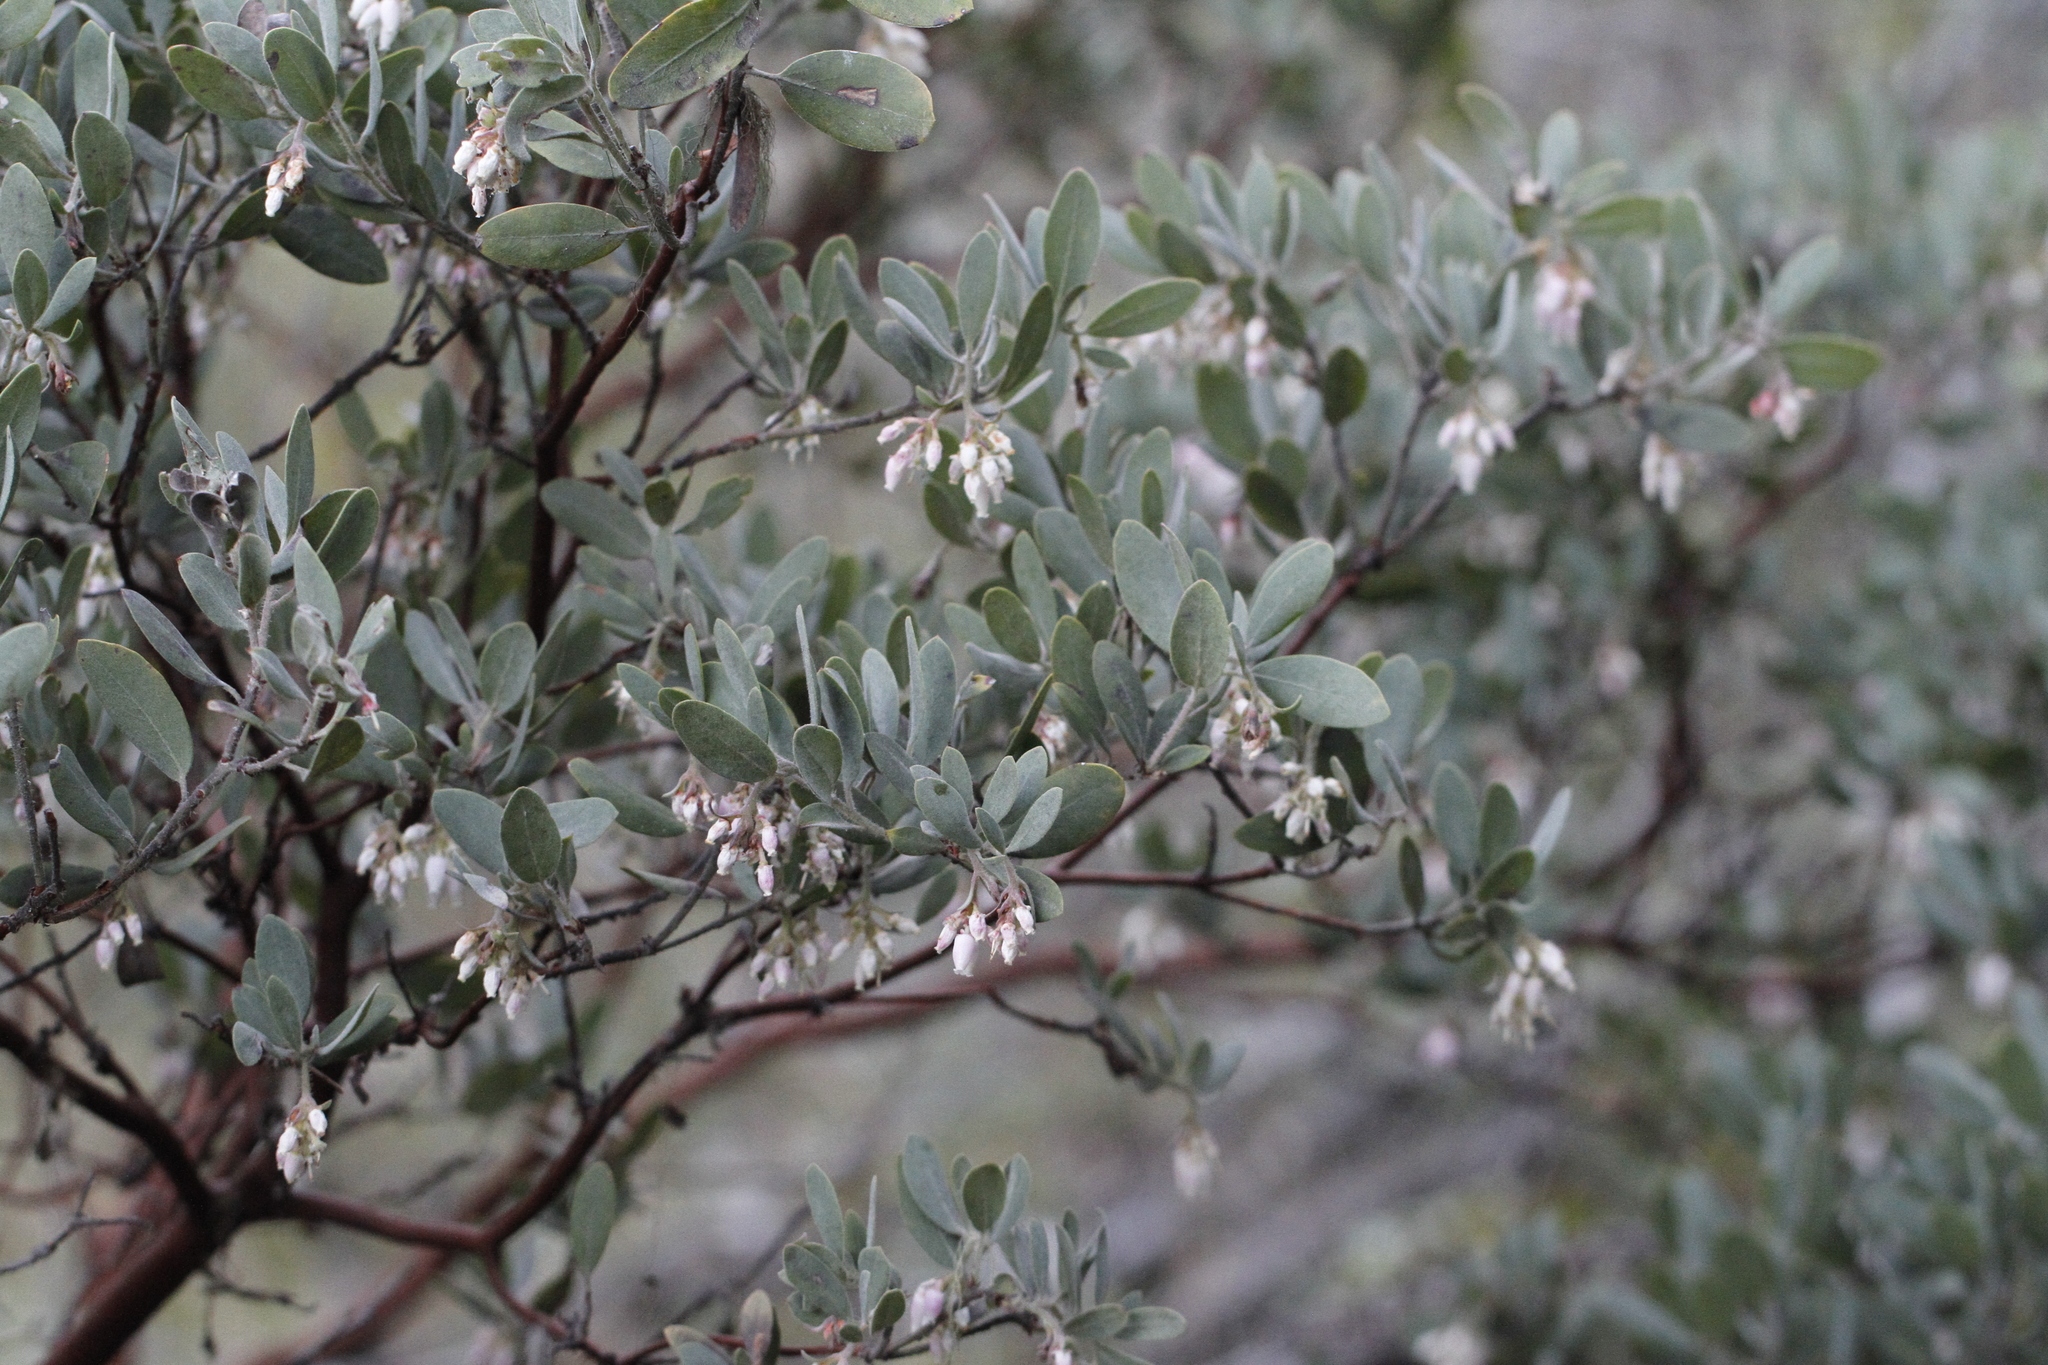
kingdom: Plantae
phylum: Tracheophyta
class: Magnoliopsida
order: Ericales
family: Ericaceae
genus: Arctostaphylos
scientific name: Arctostaphylos columbiana
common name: Bristly bearberry
